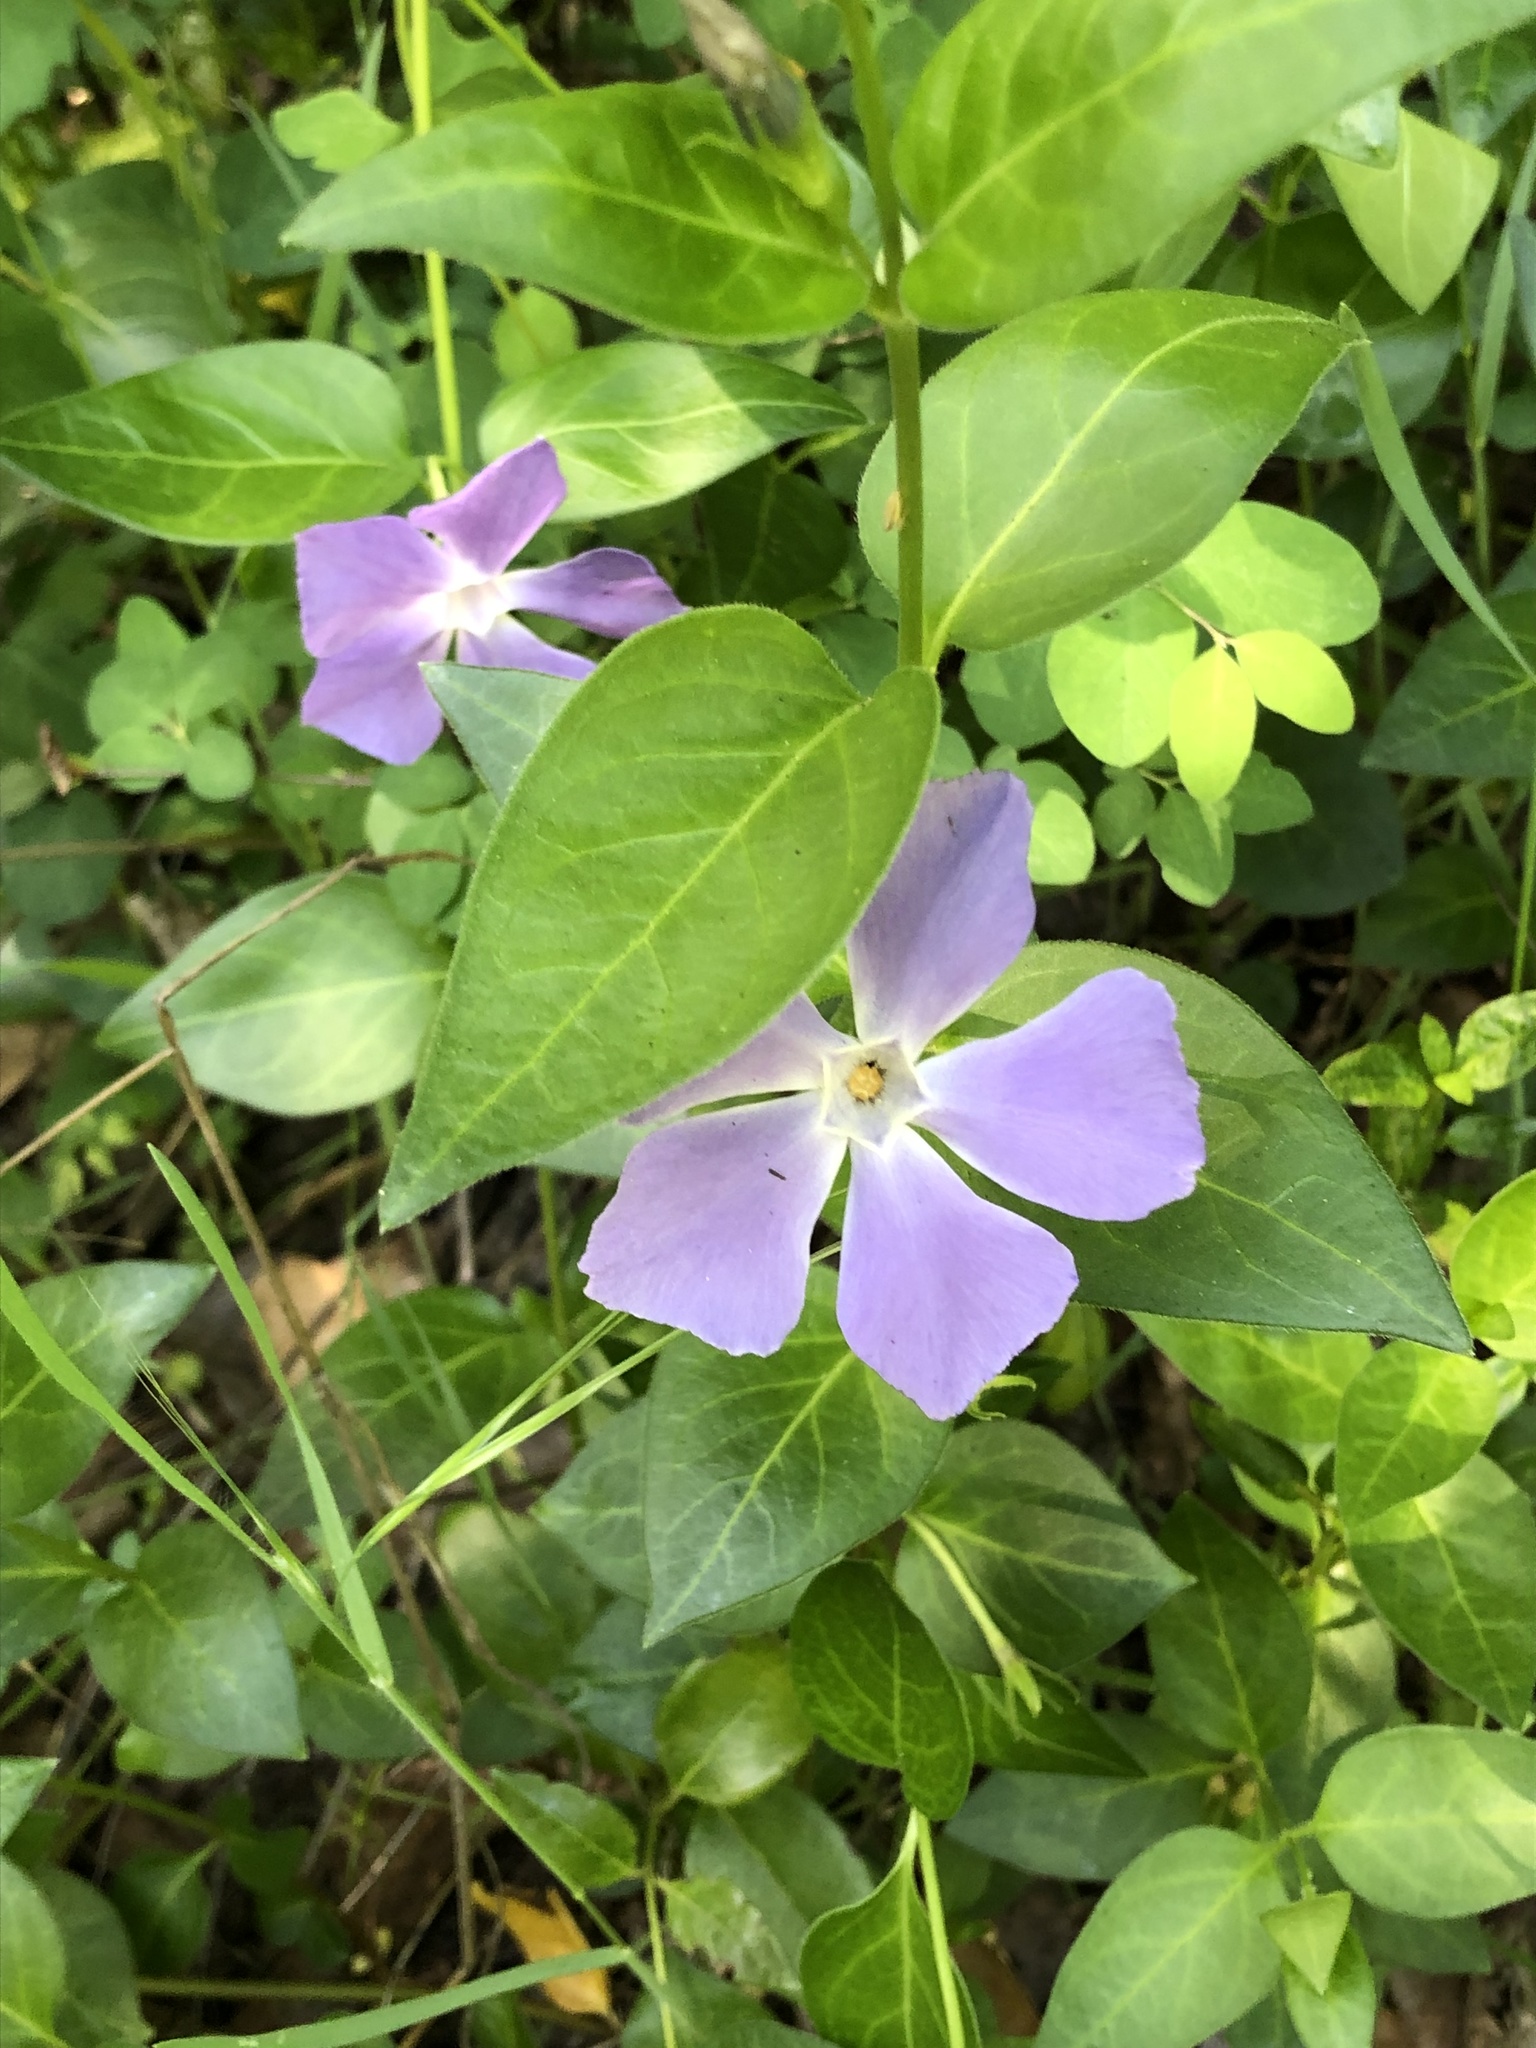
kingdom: Plantae
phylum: Tracheophyta
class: Magnoliopsida
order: Gentianales
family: Apocynaceae
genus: Vinca
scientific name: Vinca major
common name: Greater periwinkle
